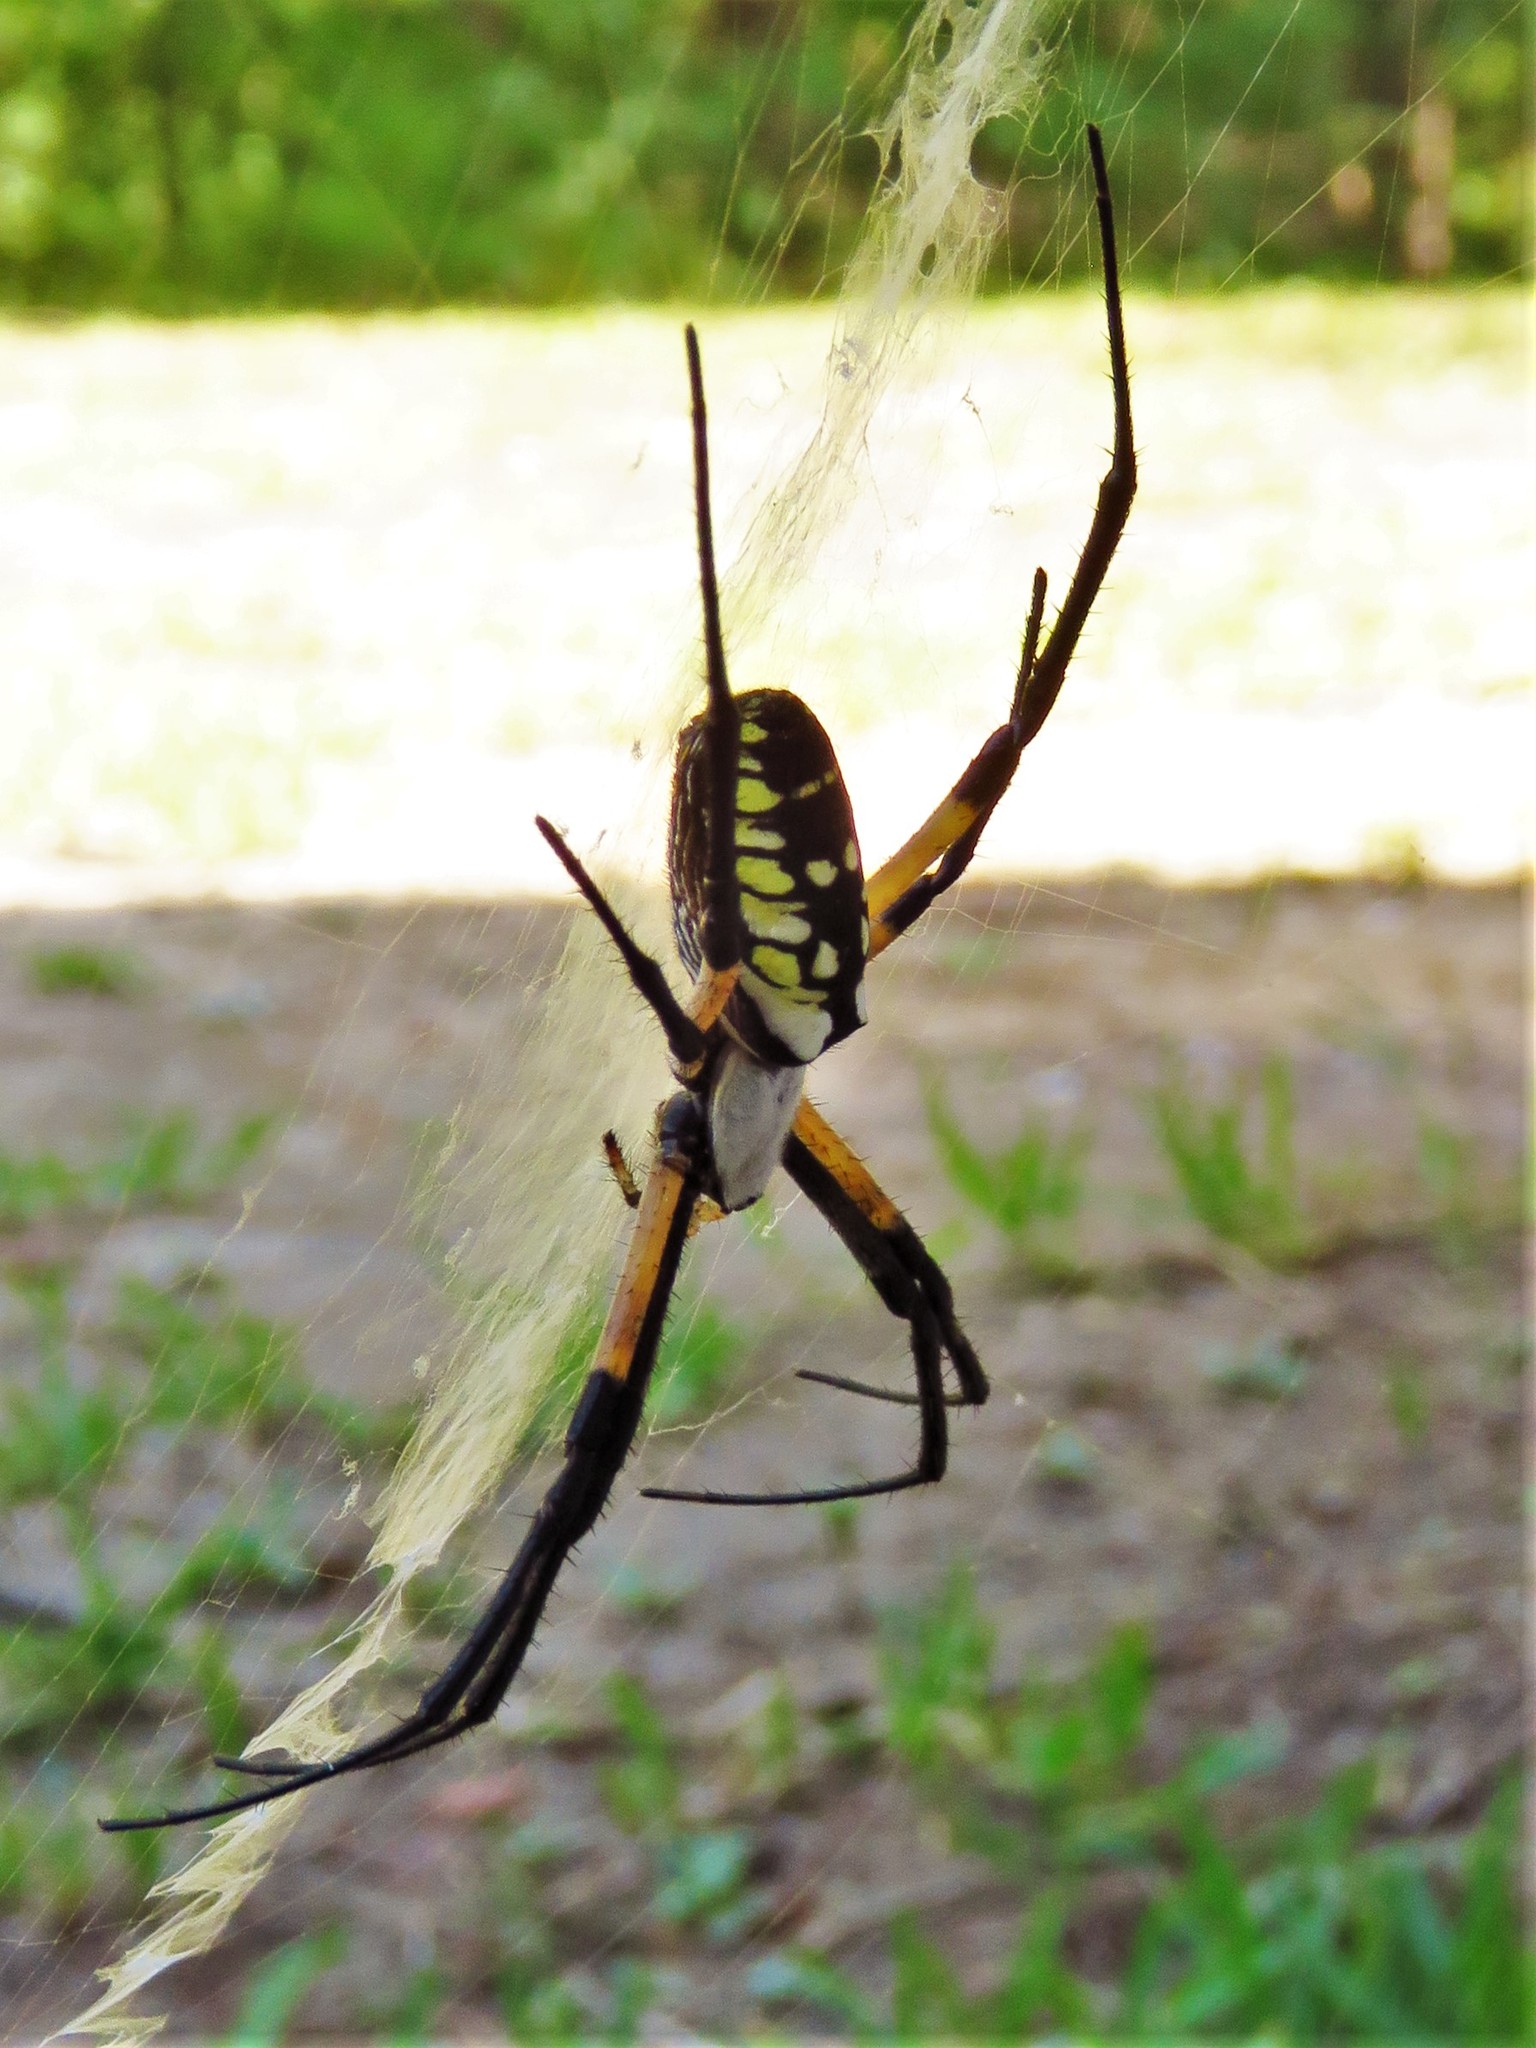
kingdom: Animalia
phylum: Arthropoda
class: Arachnida
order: Araneae
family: Araneidae
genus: Argiope
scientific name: Argiope aurantia
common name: Orb weavers
